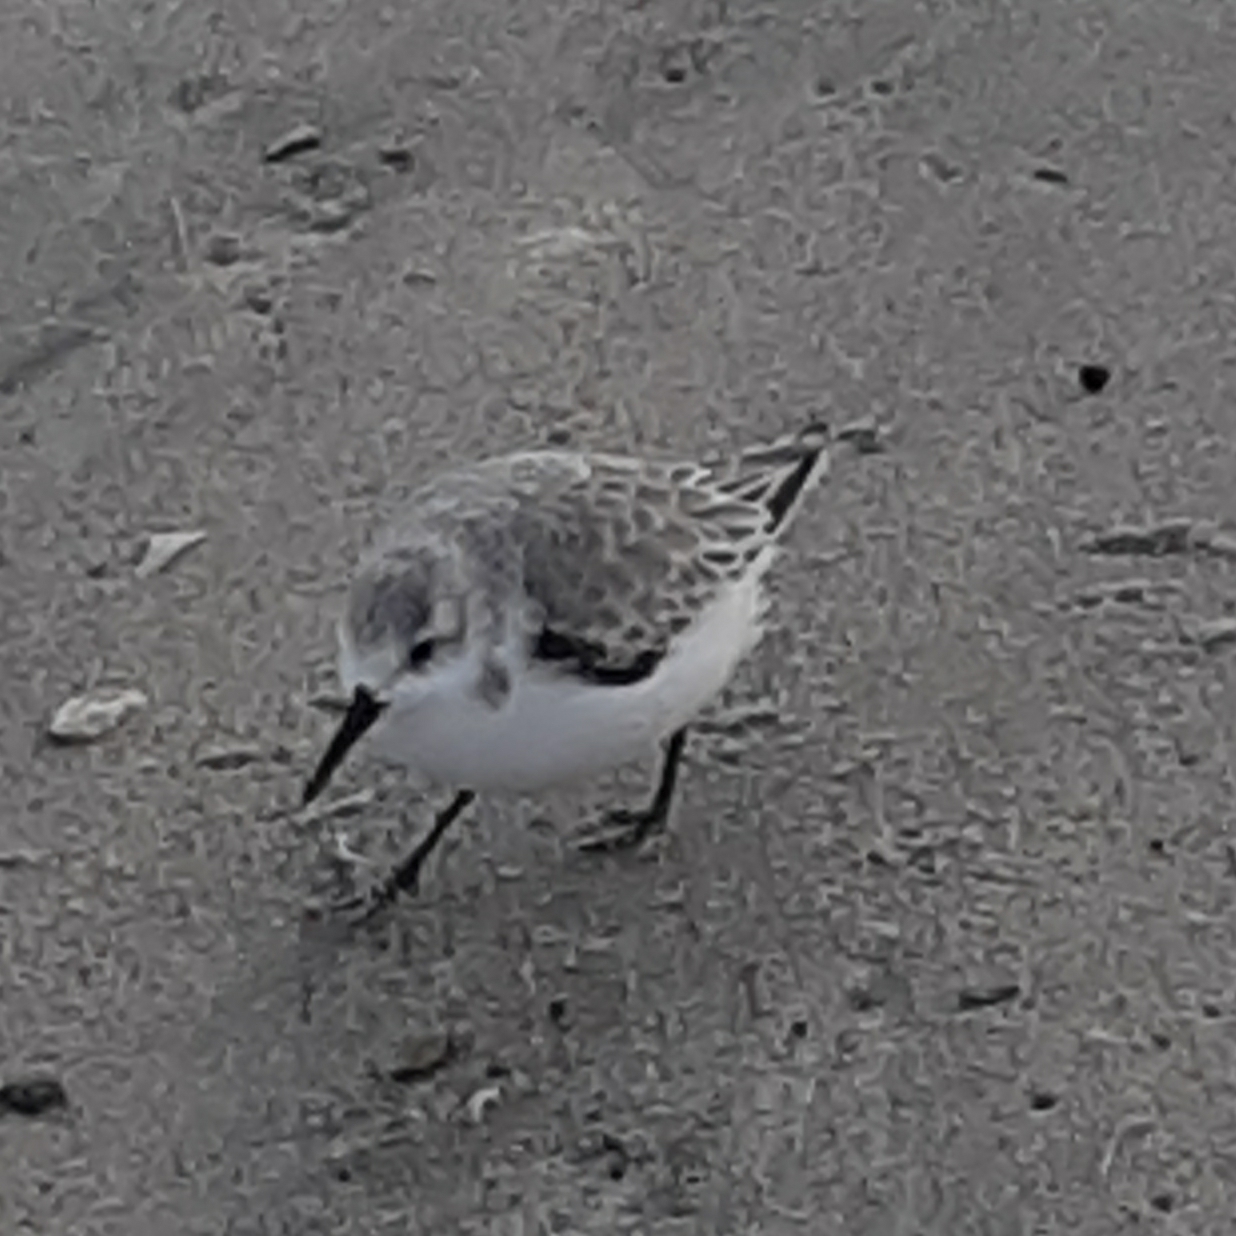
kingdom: Animalia
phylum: Chordata
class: Aves
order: Charadriiformes
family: Scolopacidae
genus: Calidris
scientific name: Calidris alba
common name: Sanderling
